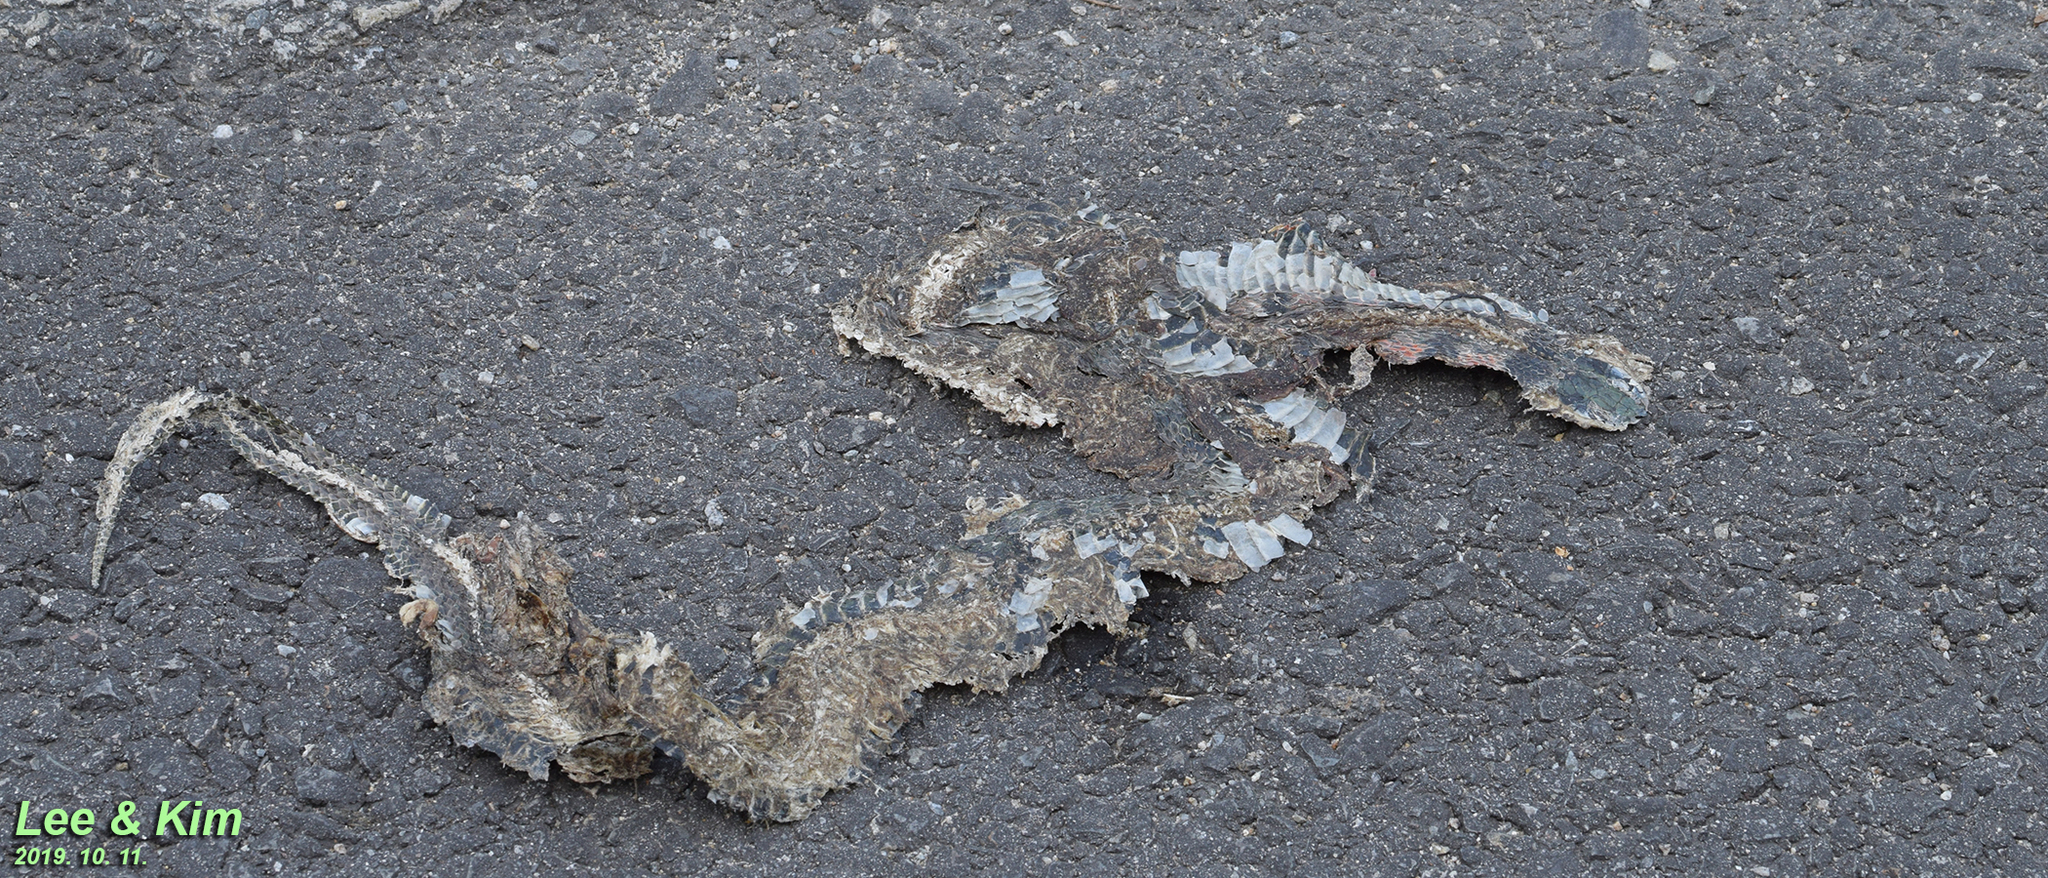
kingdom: Animalia
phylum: Chordata
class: Squamata
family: Colubridae
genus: Rhabdophis
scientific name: Rhabdophis tigrinus
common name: Tiger keelback
